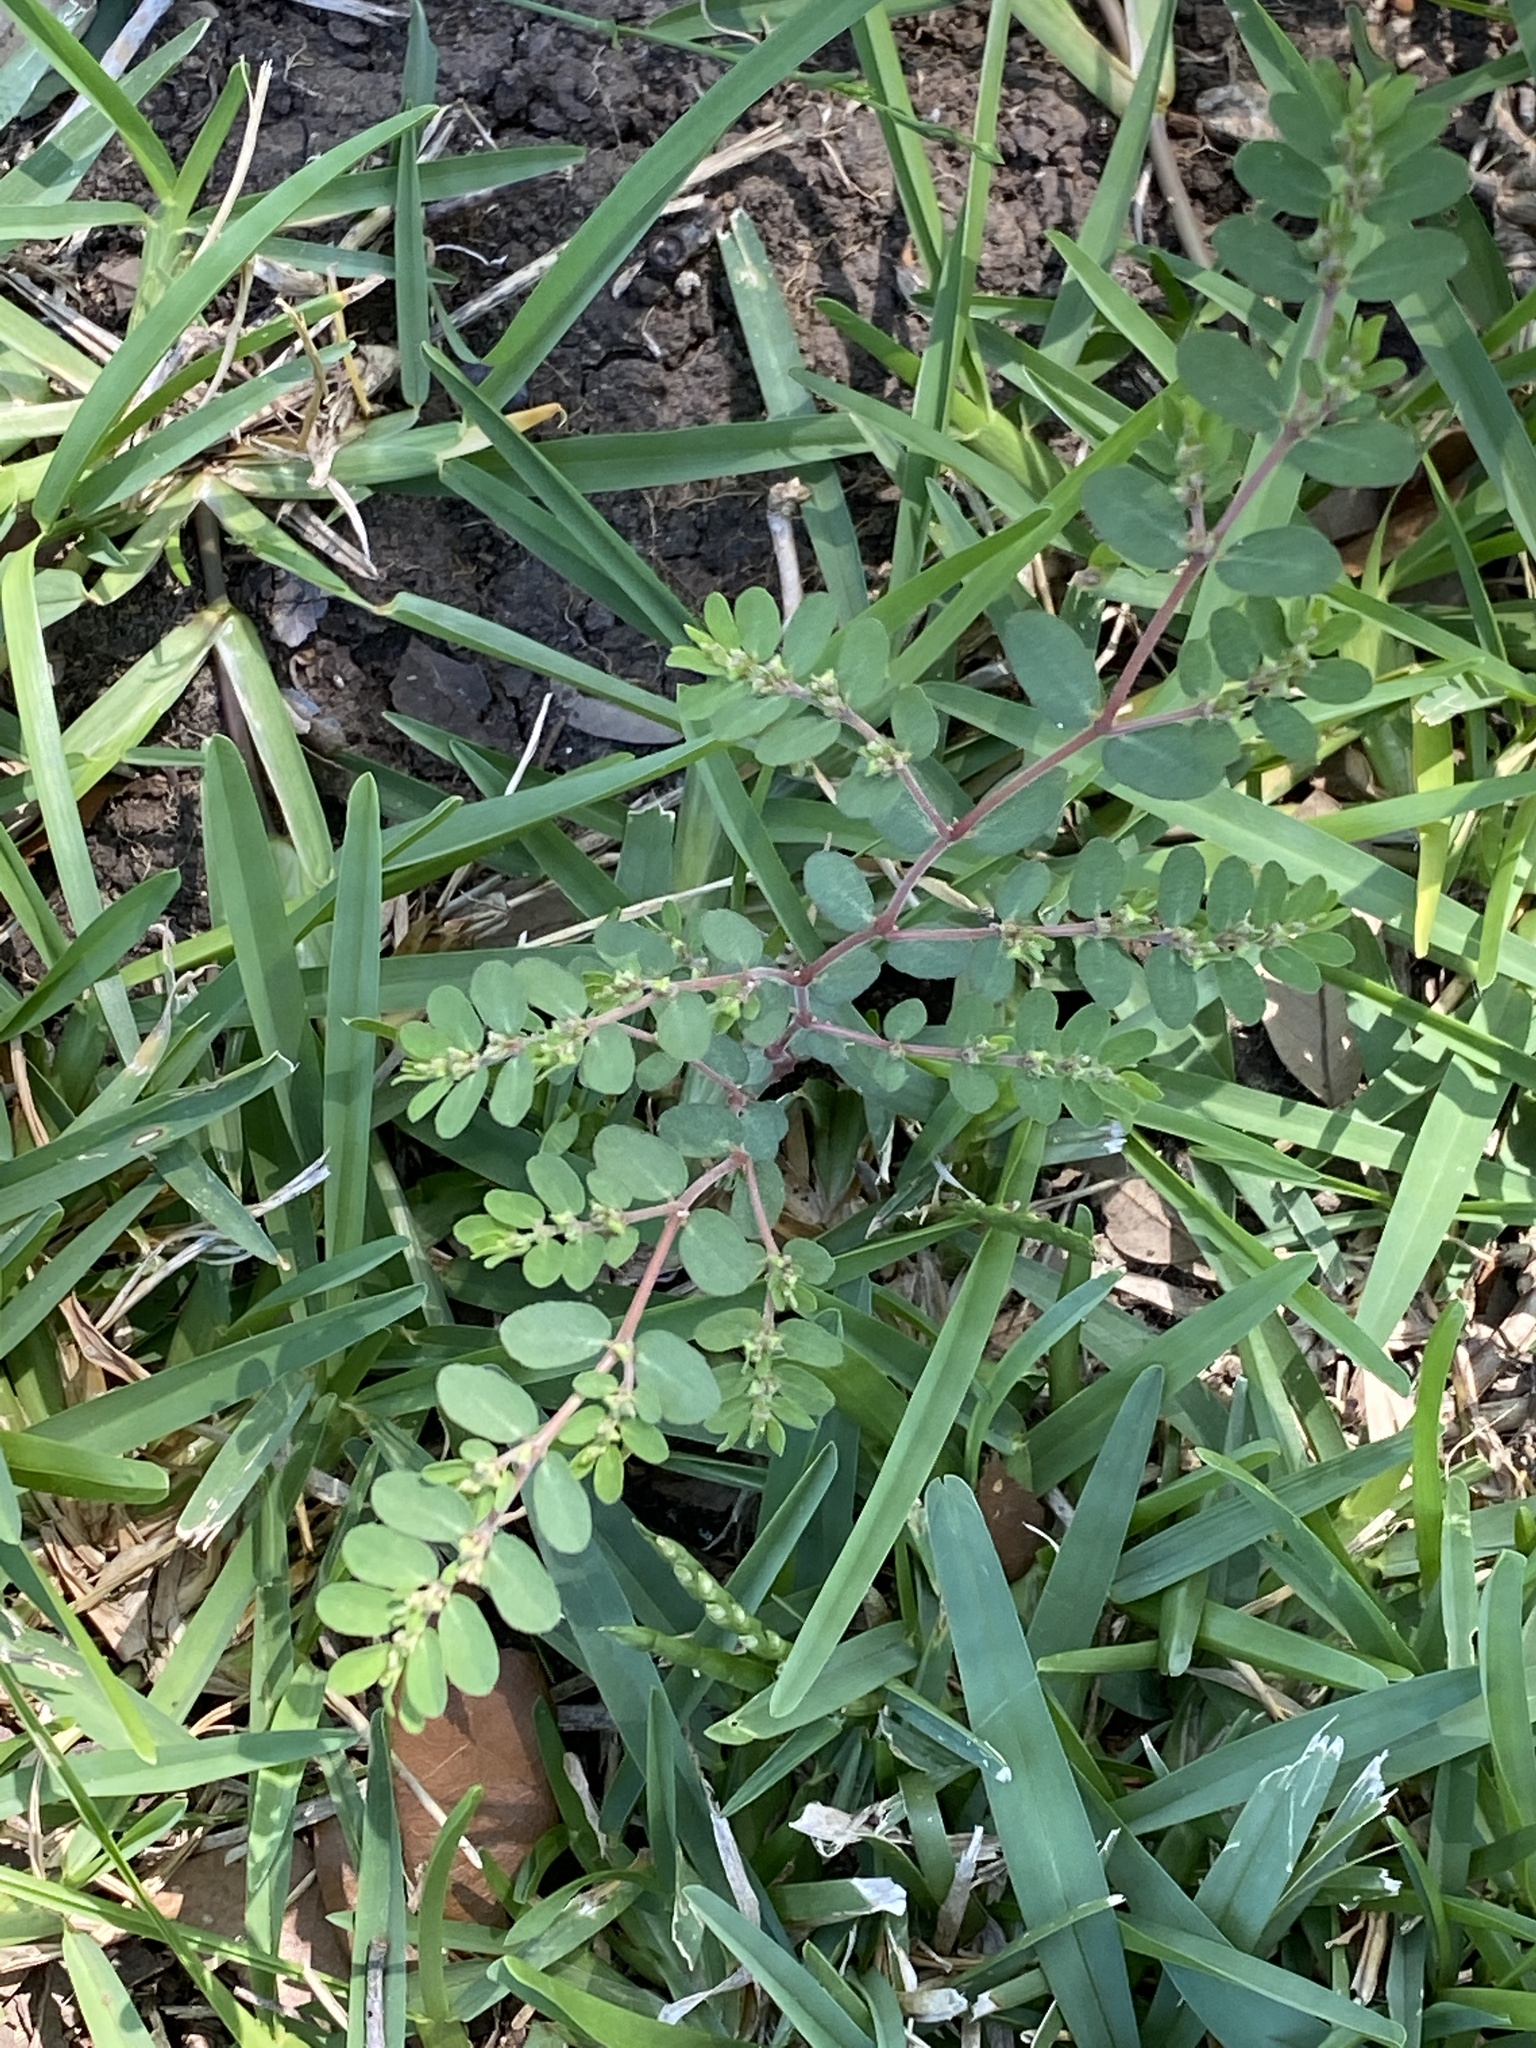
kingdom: Plantae
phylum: Tracheophyta
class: Magnoliopsida
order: Malpighiales
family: Euphorbiaceae
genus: Euphorbia
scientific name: Euphorbia prostrata
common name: Prostrate sandmat
